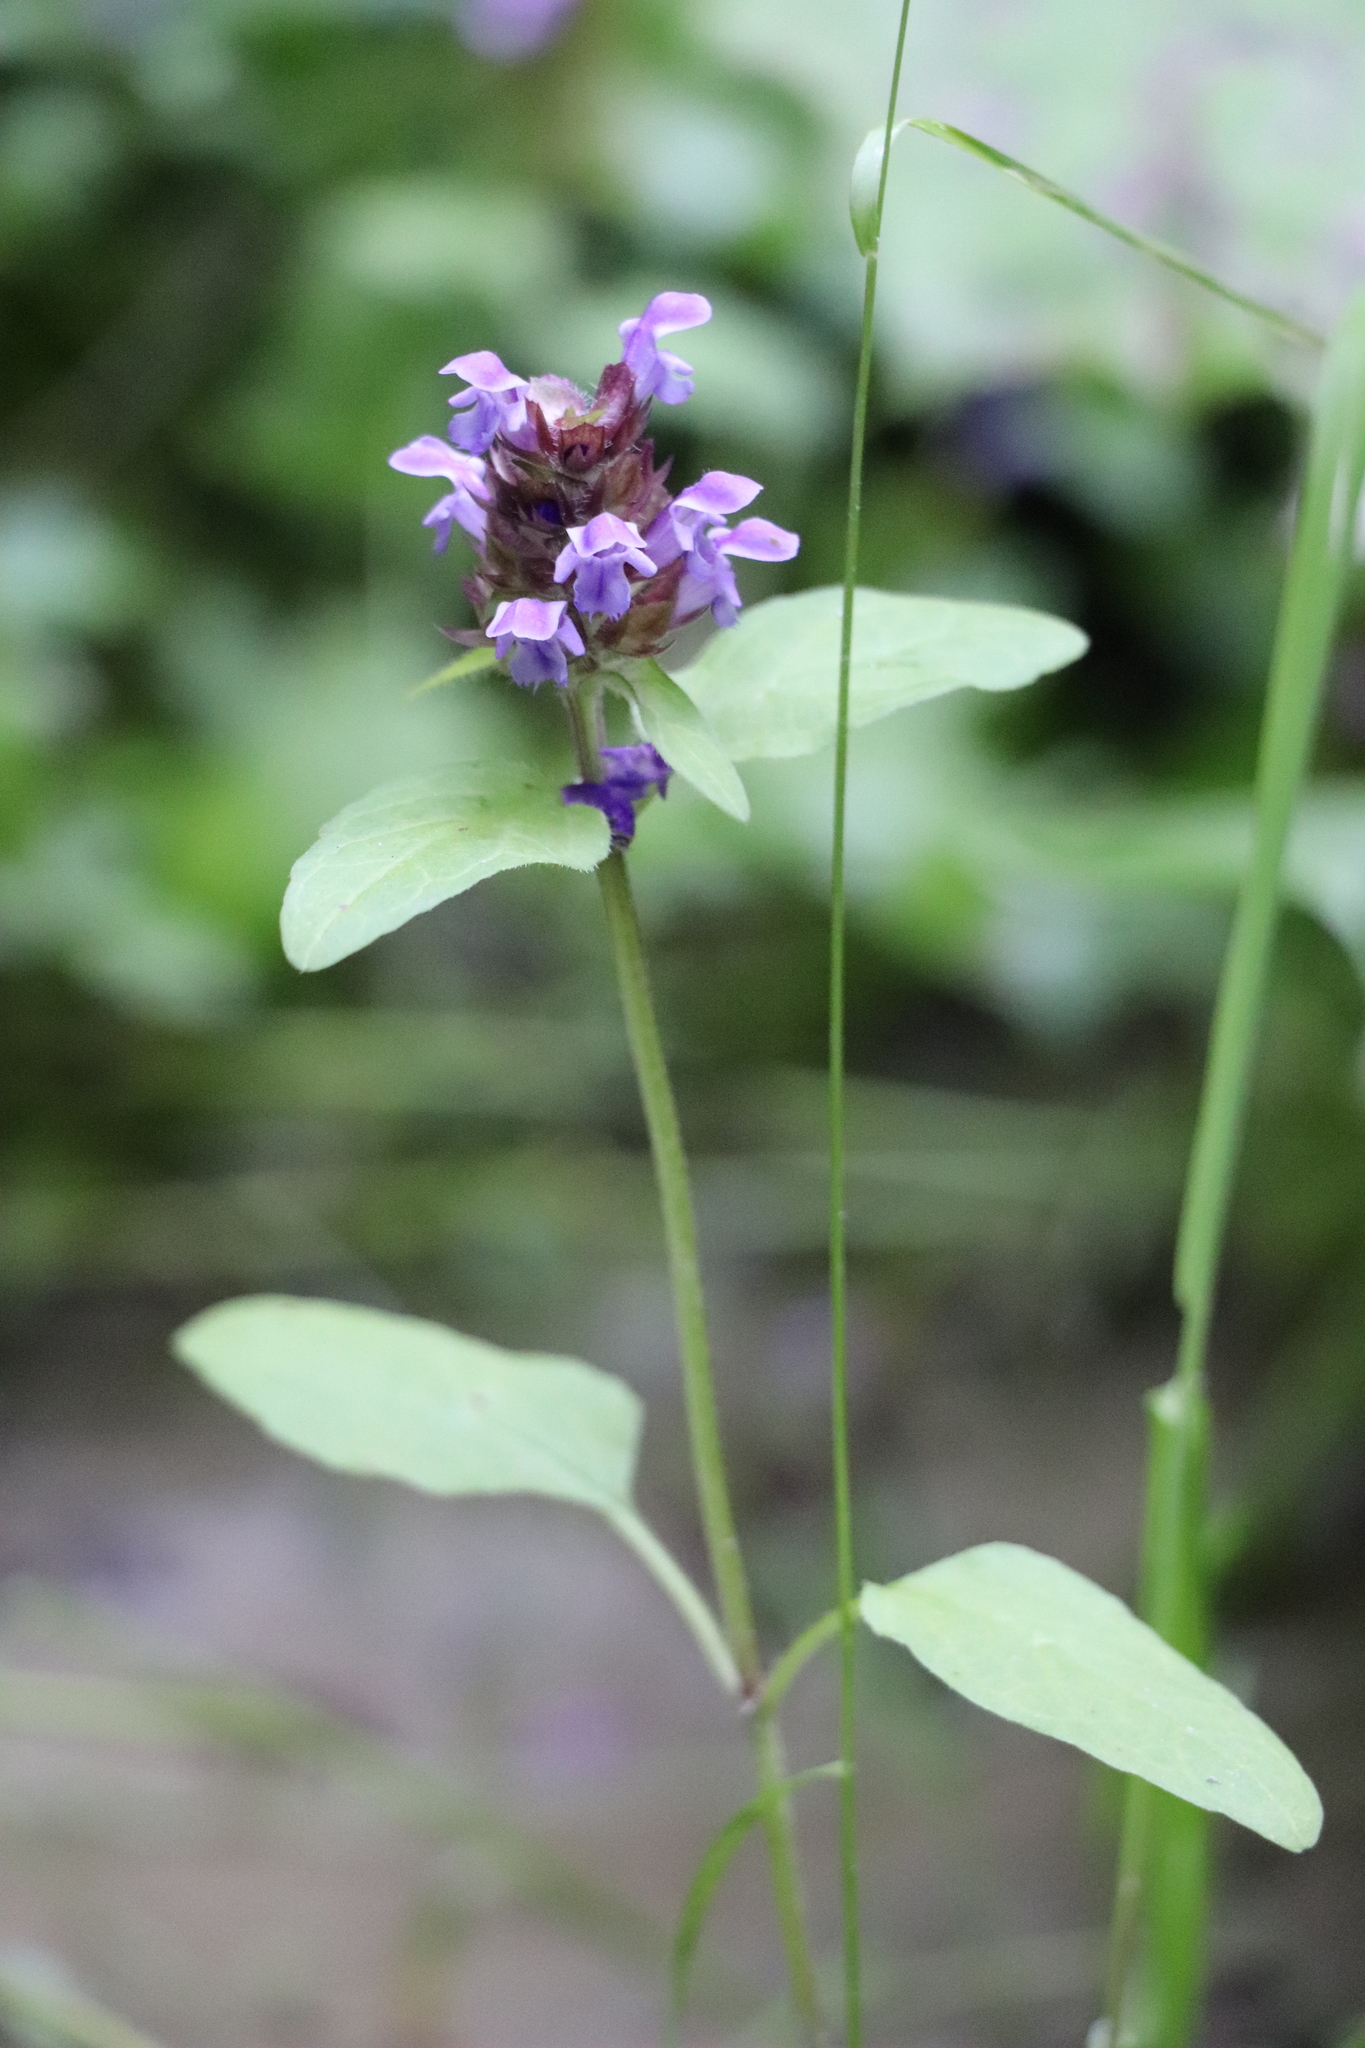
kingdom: Plantae
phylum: Tracheophyta
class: Magnoliopsida
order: Lamiales
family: Lamiaceae
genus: Prunella
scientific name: Prunella vulgaris
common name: Heal-all
